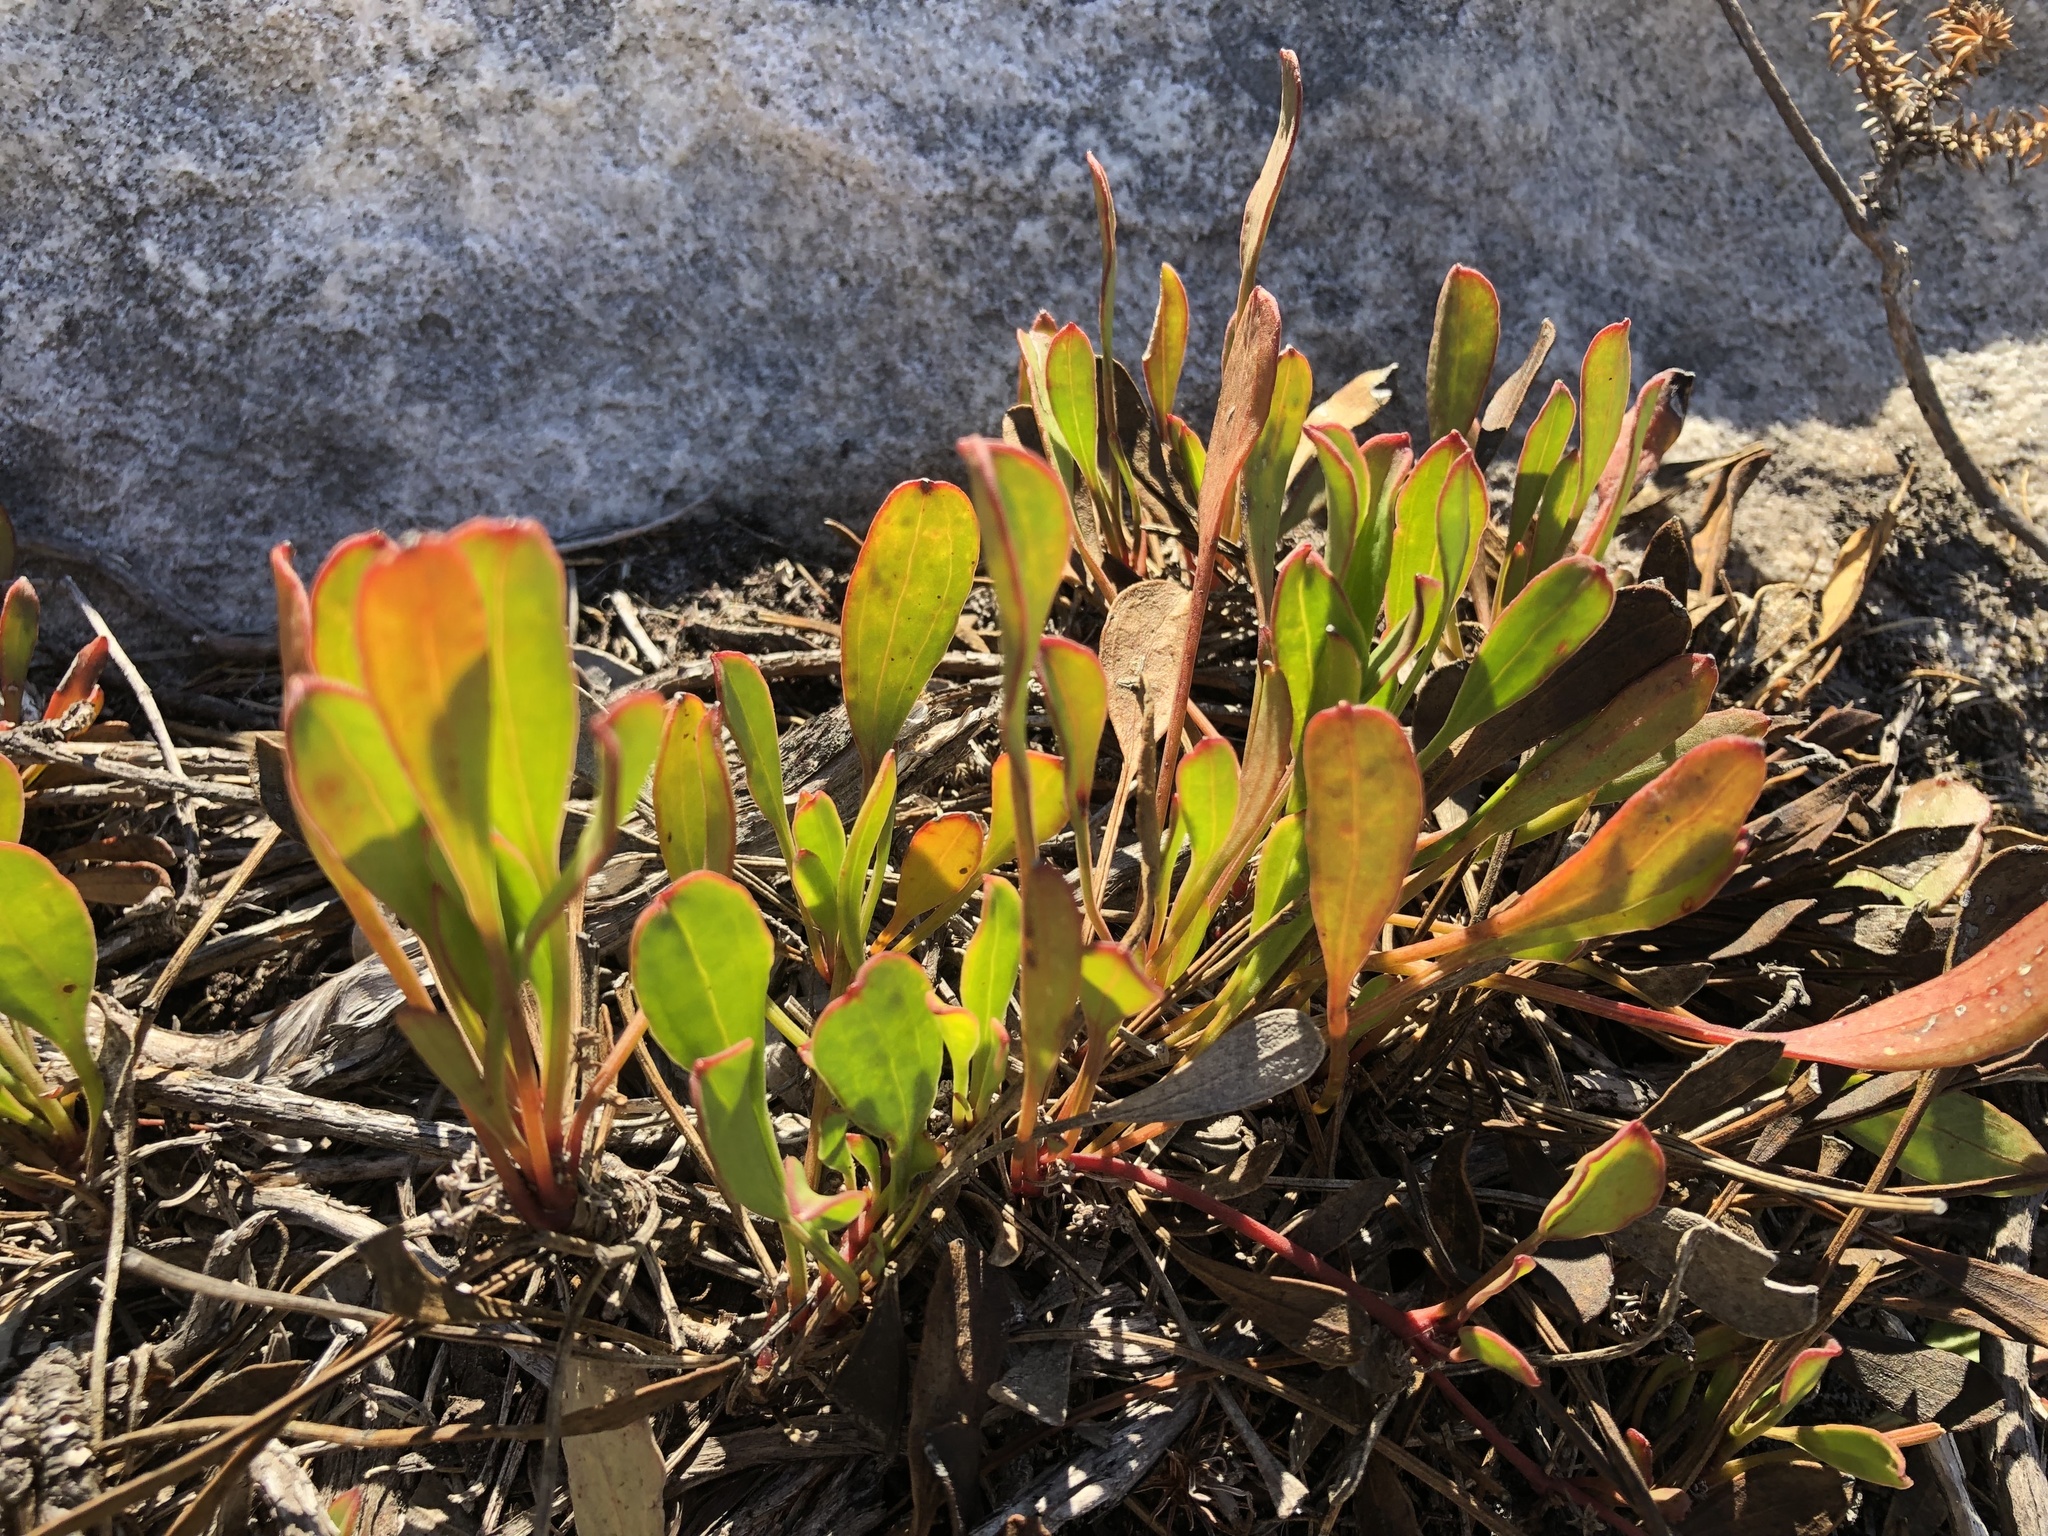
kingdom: Plantae
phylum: Tracheophyta
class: Magnoliopsida
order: Apiales
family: Apiaceae
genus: Centella
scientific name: Centella glabrata
